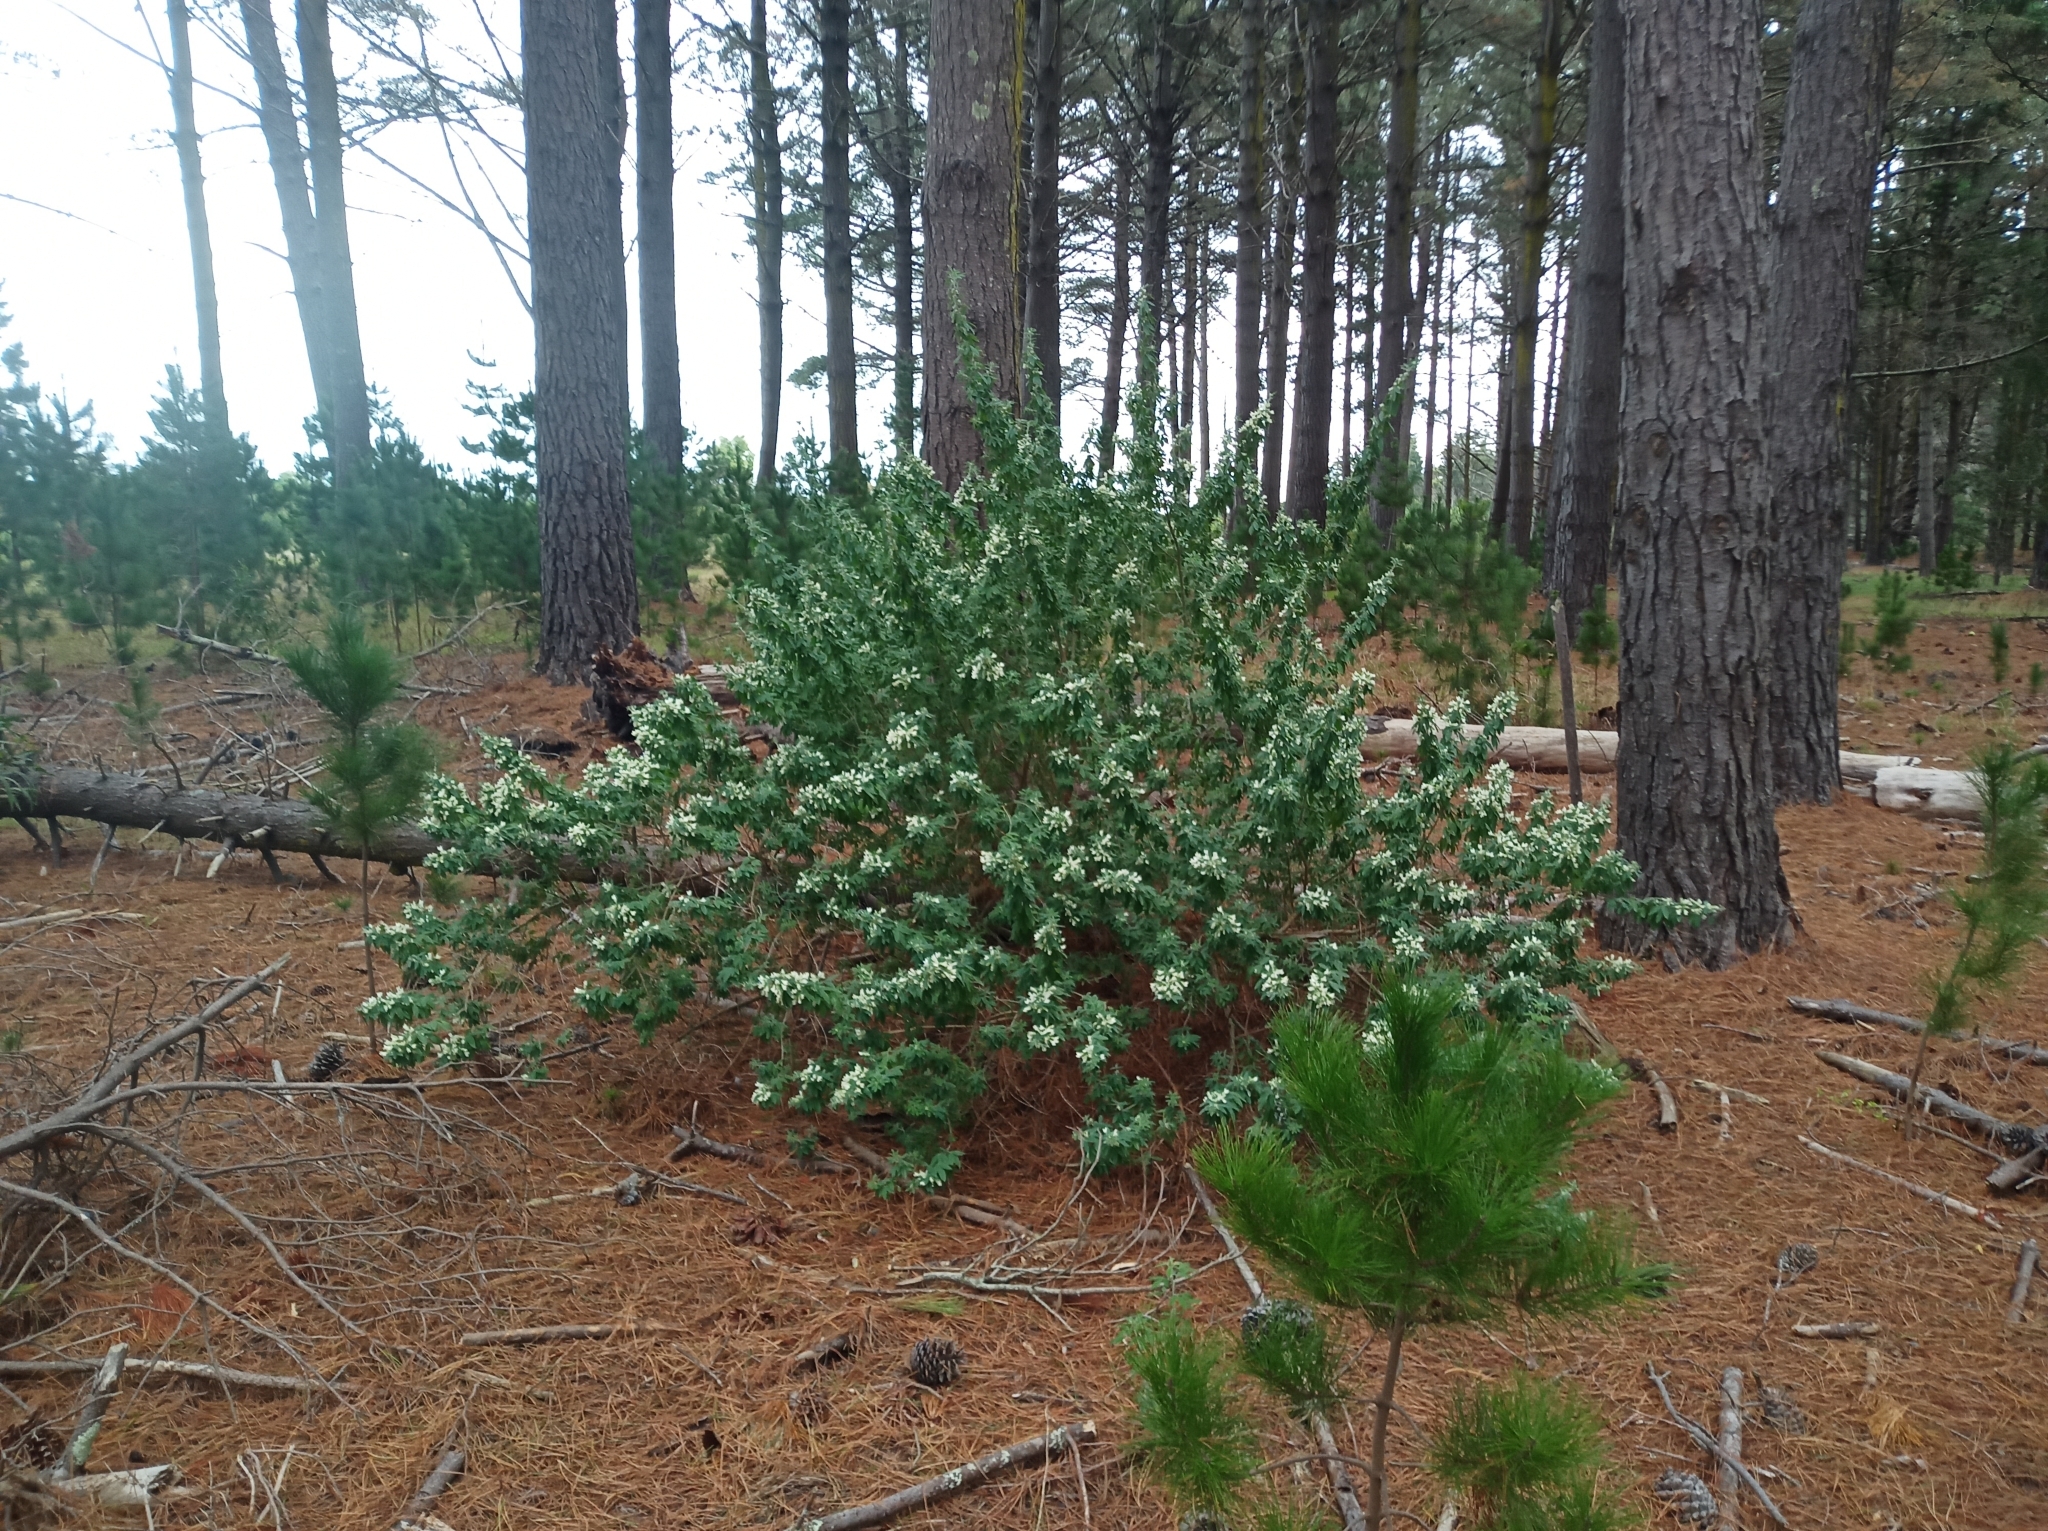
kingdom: Plantae
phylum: Tracheophyta
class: Magnoliopsida
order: Fabales
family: Fabaceae
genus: Chamaecytisus
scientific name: Chamaecytisus prolifer
